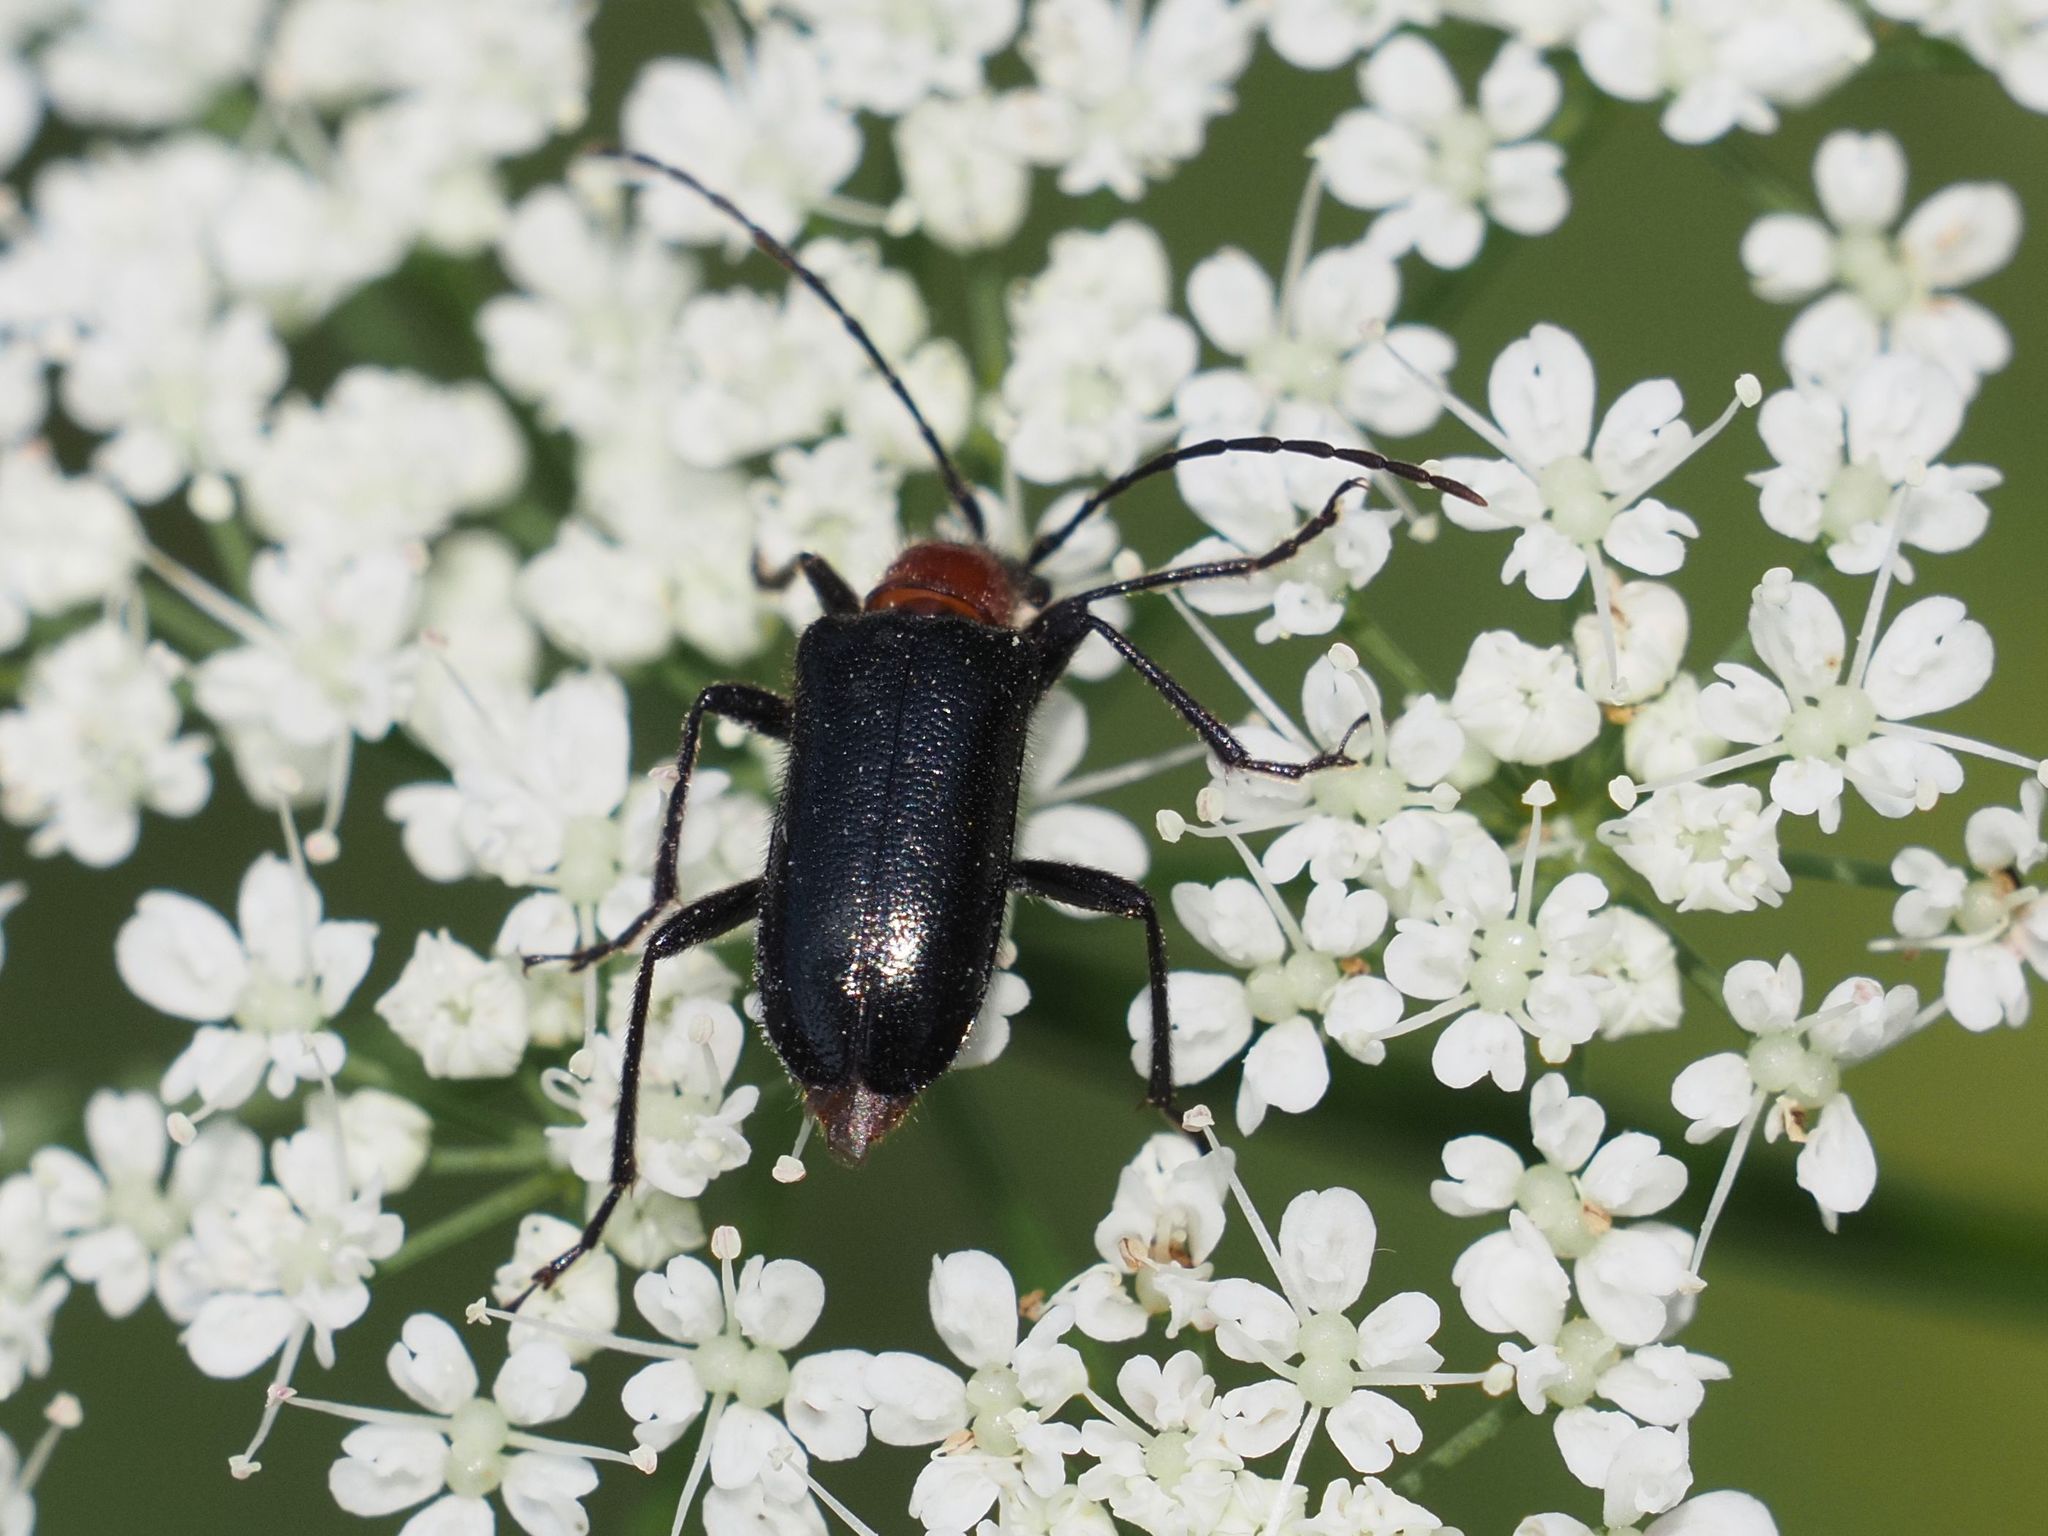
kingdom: Animalia
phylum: Arthropoda
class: Insecta
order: Coleoptera
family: Cerambycidae
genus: Dinoptera
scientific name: Dinoptera collaris
